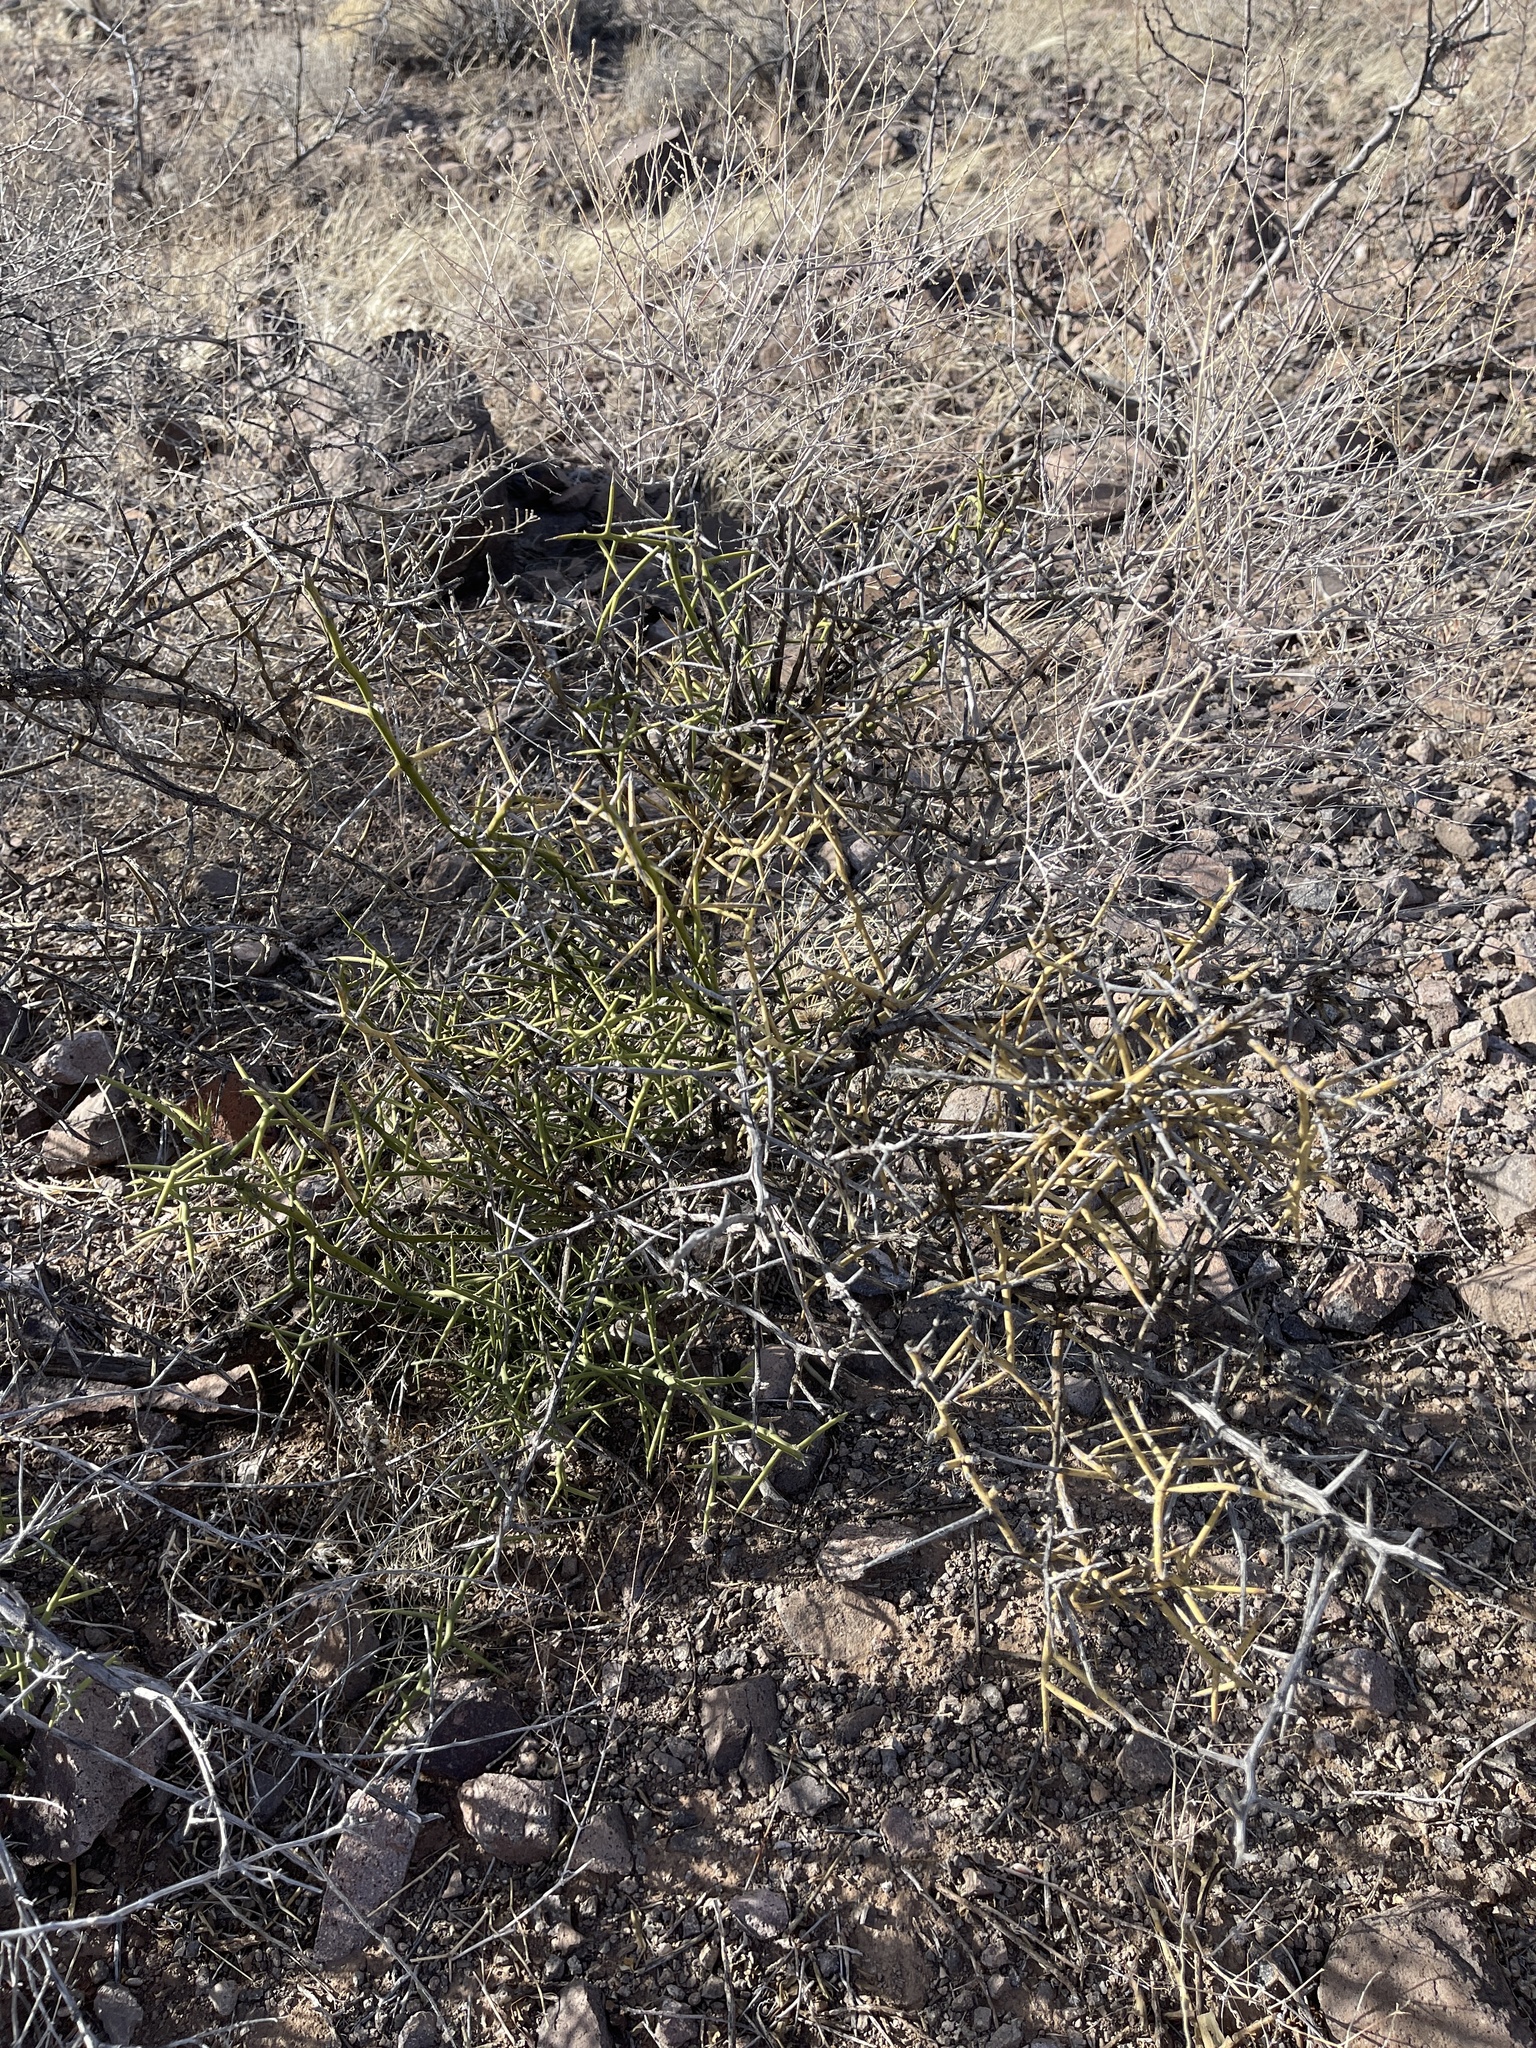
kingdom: Plantae
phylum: Tracheophyta
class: Magnoliopsida
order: Brassicales
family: Koeberliniaceae
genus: Koeberlinia
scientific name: Koeberlinia spinosa
